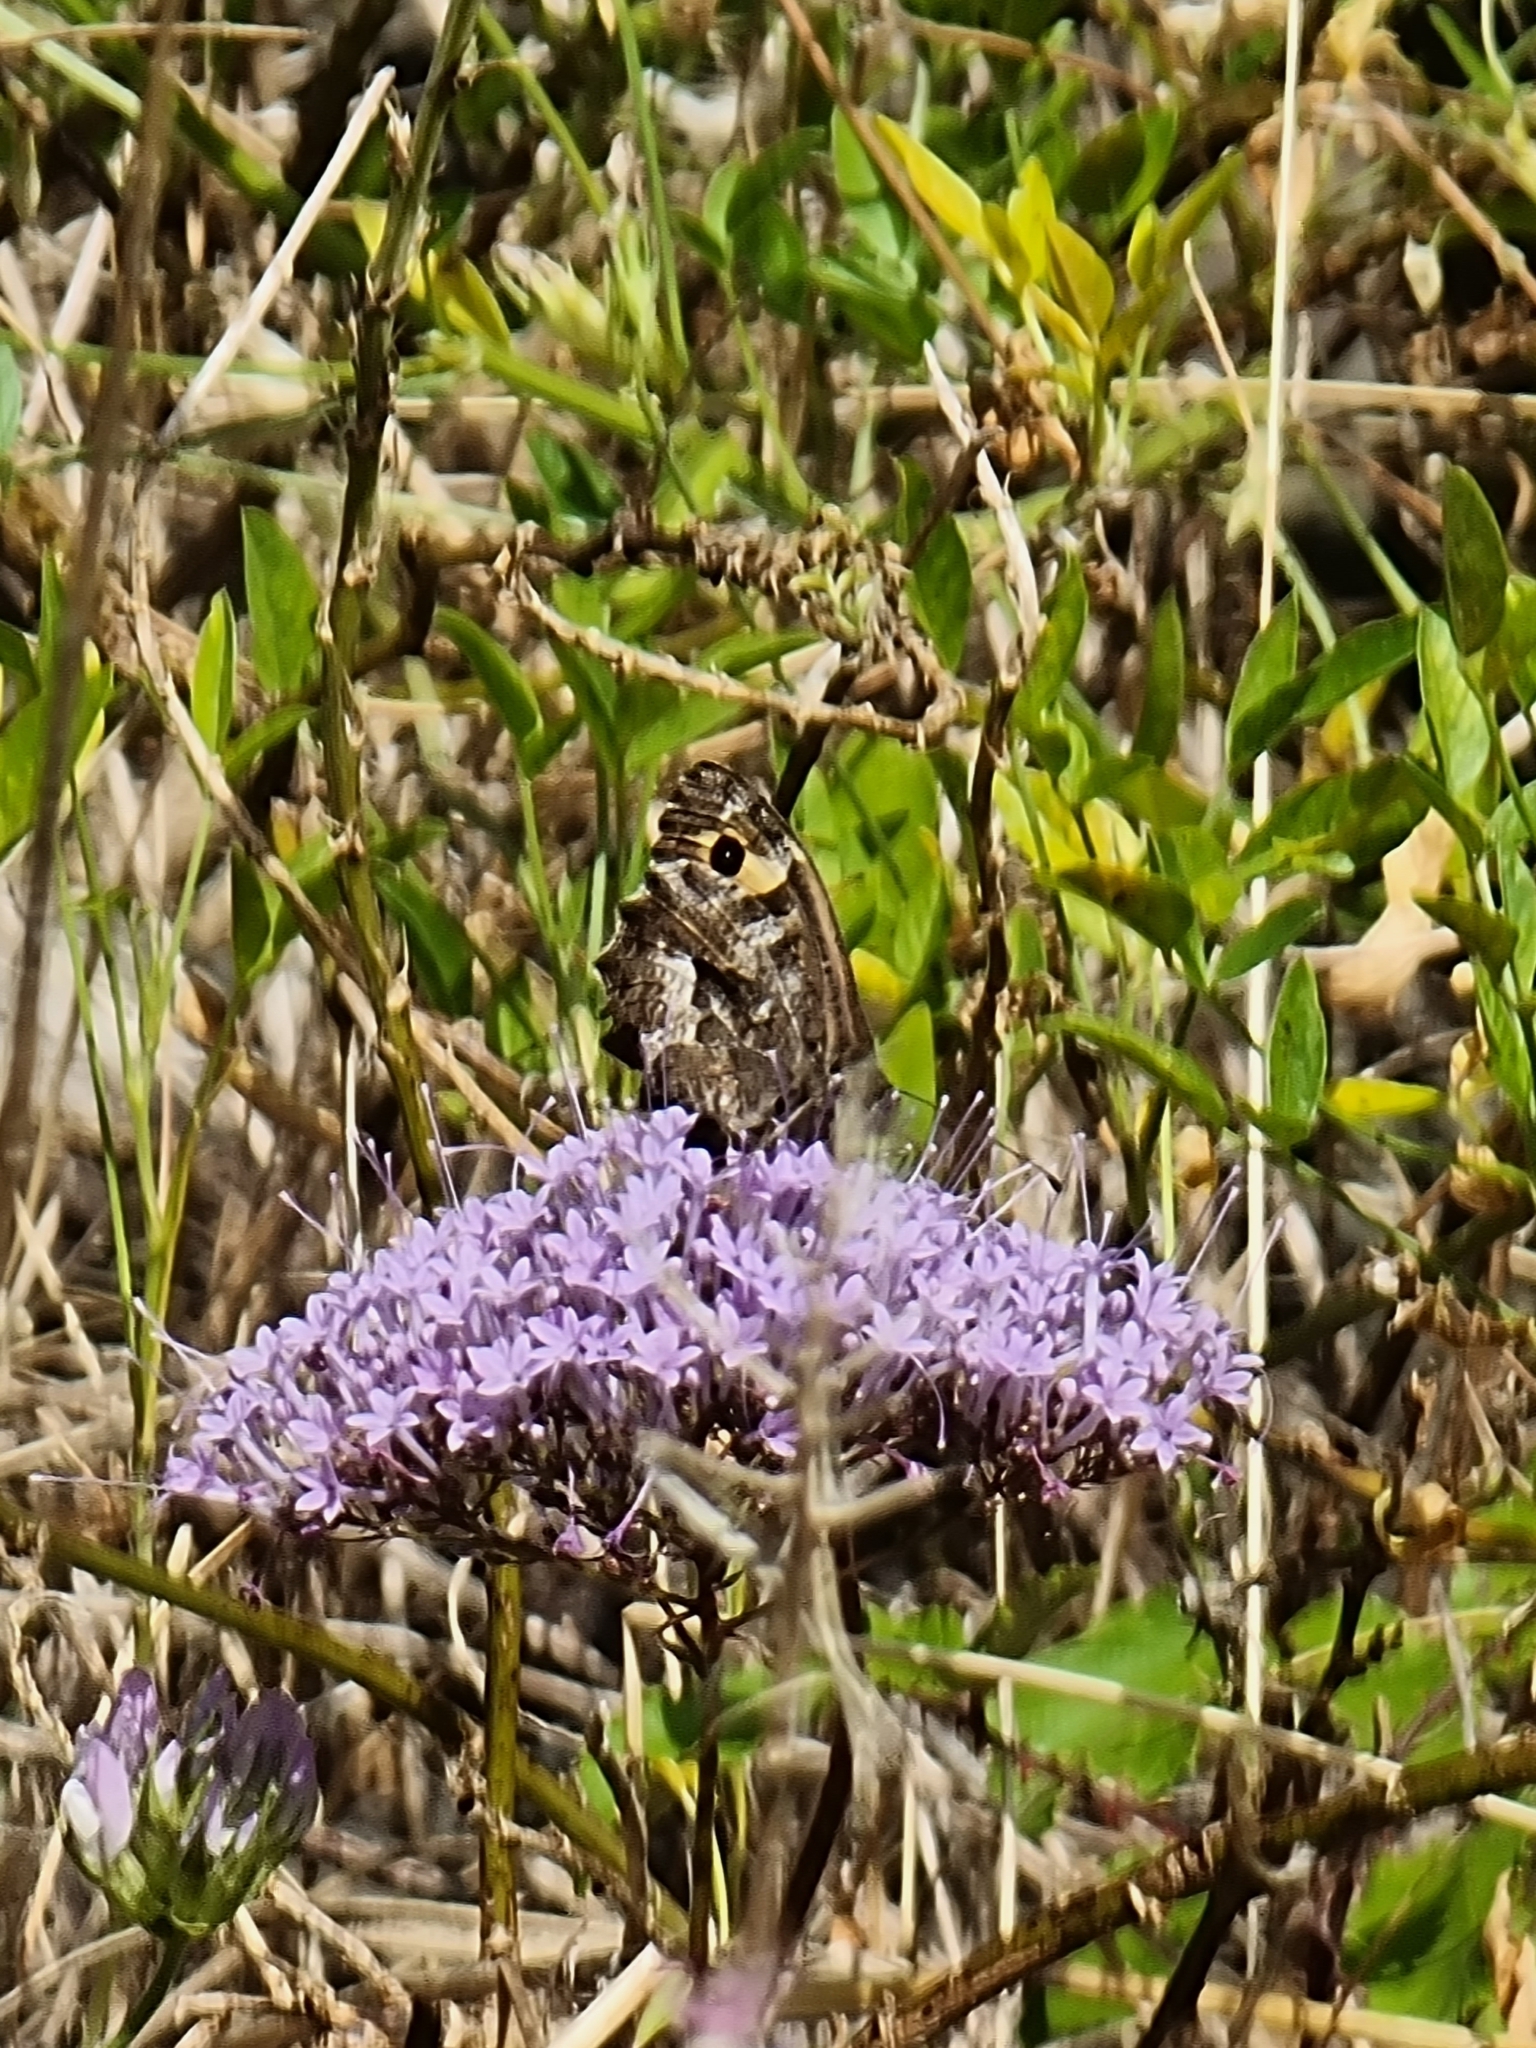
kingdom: Animalia
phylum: Arthropoda
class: Insecta
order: Lepidoptera
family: Nymphalidae
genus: Hipparchia
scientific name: Hipparchia algirica
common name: Mountain grayling
